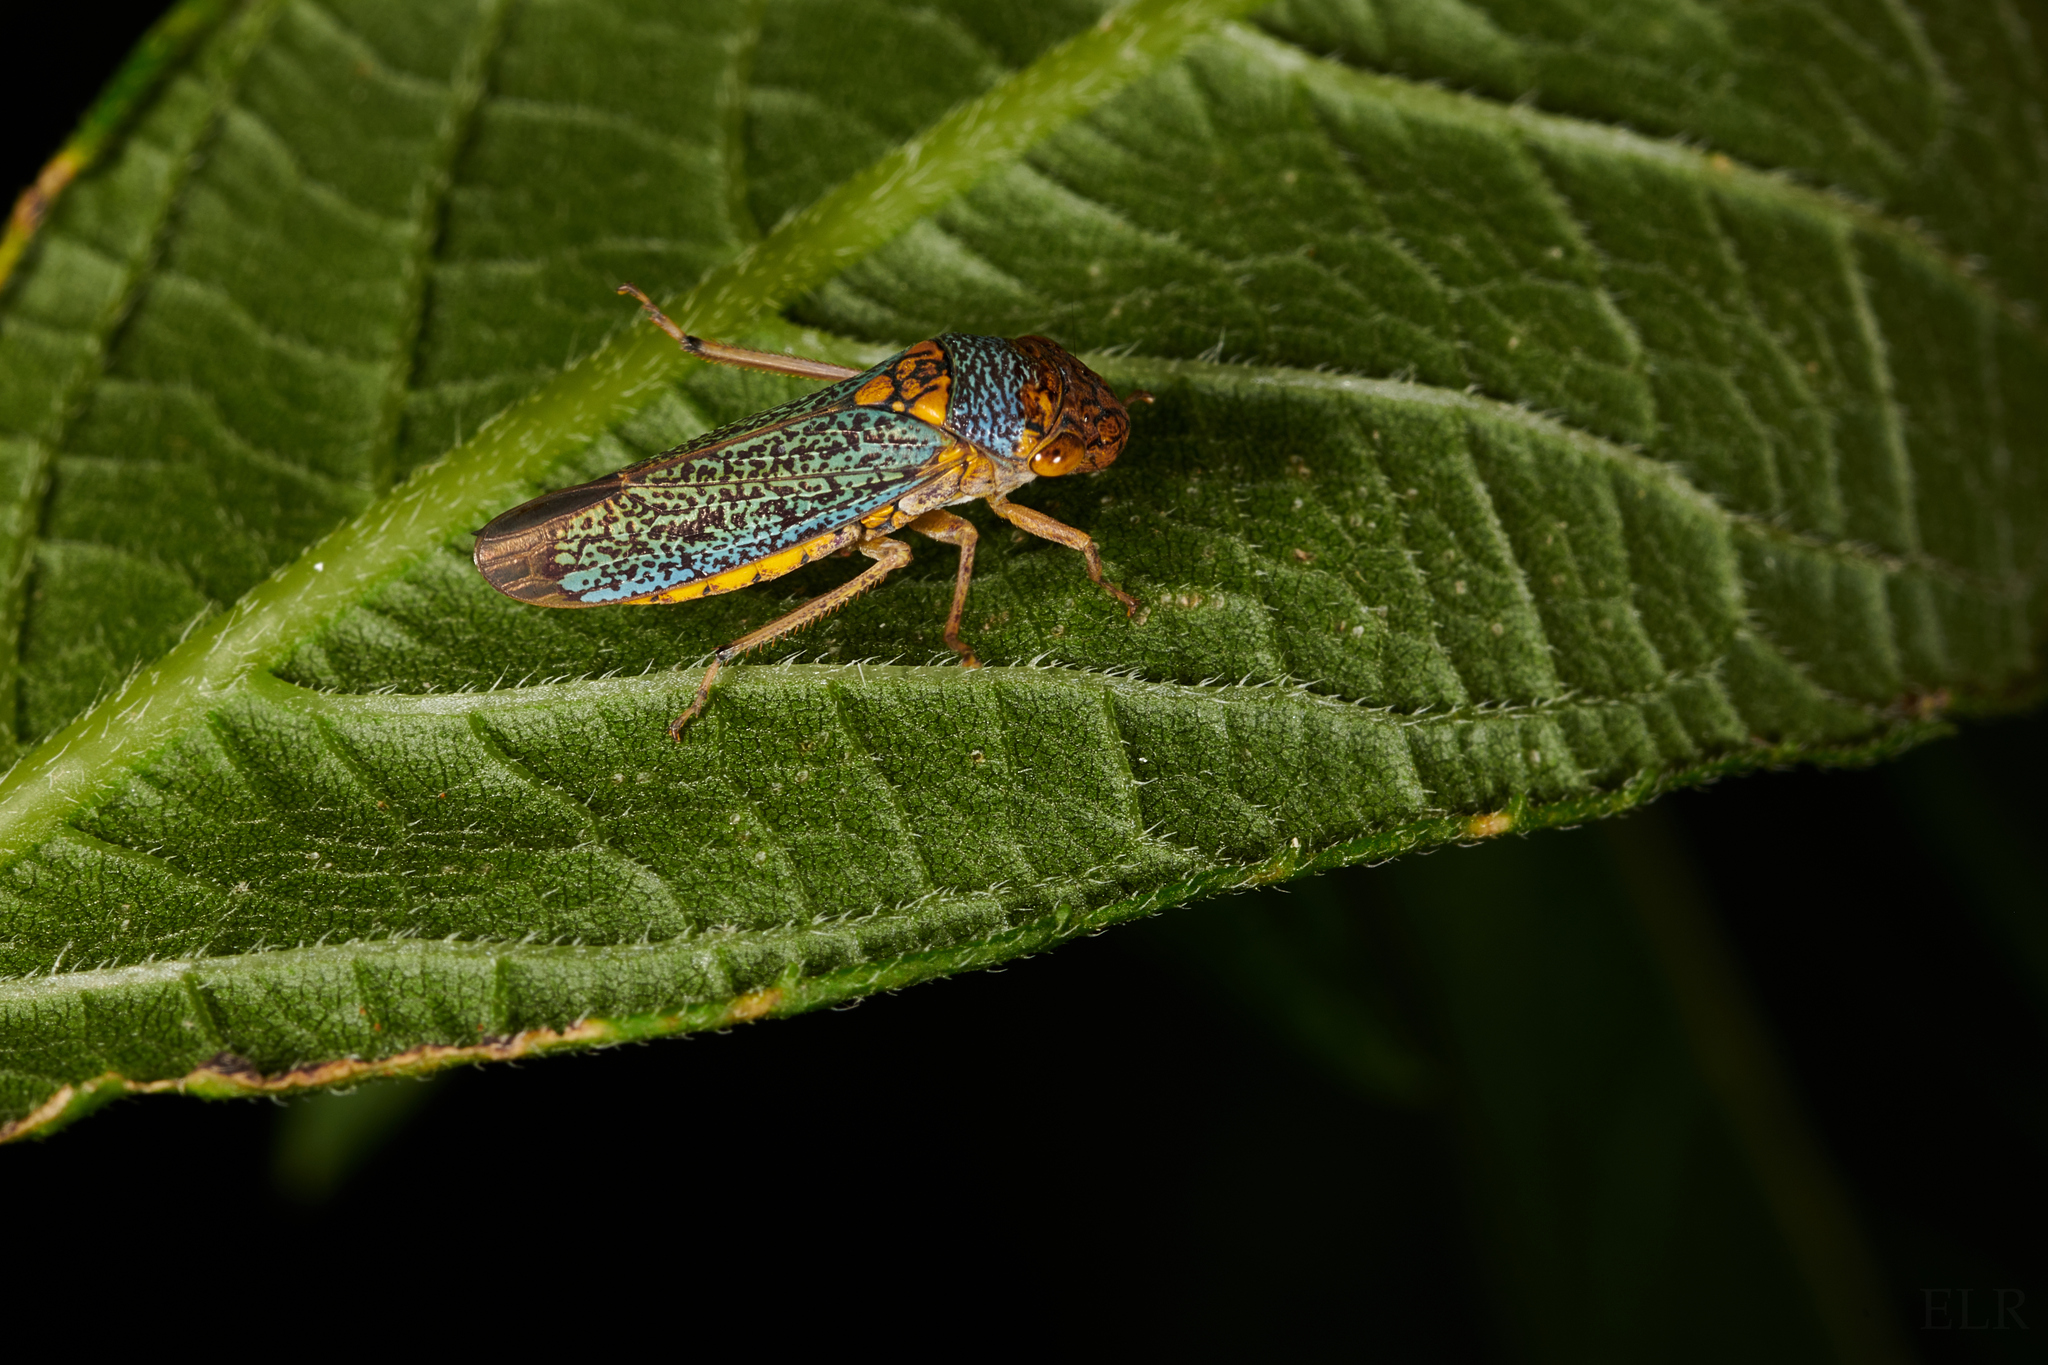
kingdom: Animalia
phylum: Arthropoda
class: Insecta
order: Hemiptera
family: Cicadellidae
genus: Oncometopia
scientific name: Oncometopia orbona
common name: Broad-headed sharpshooter
